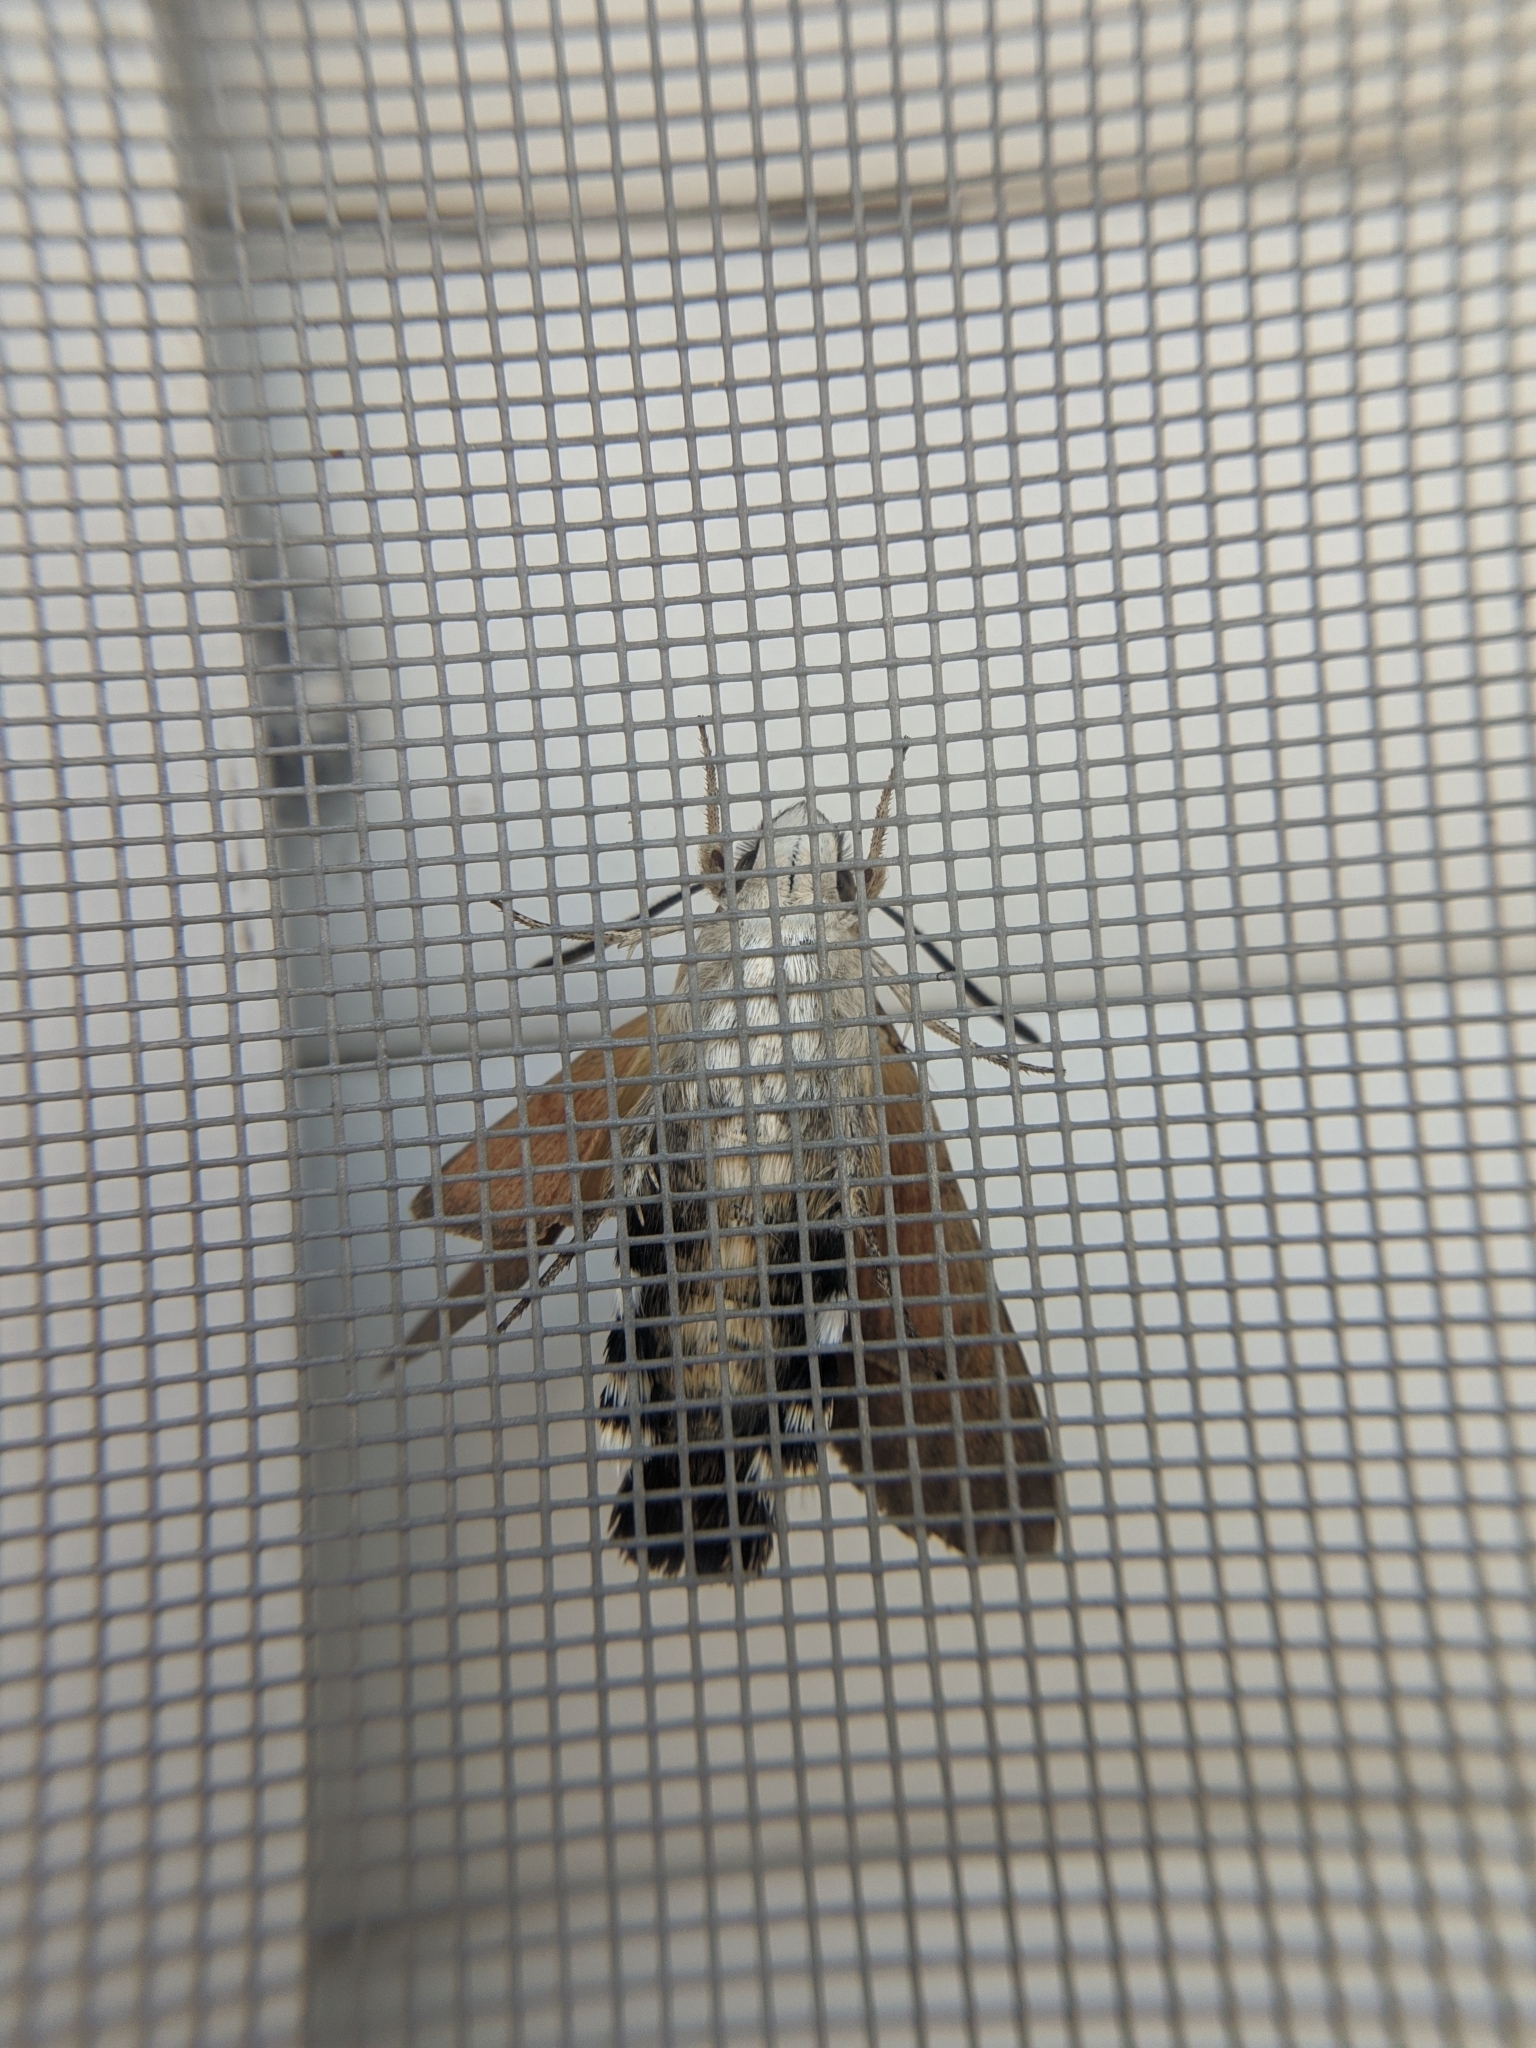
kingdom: Animalia
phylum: Arthropoda
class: Insecta
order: Lepidoptera
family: Sphingidae
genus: Macroglossum
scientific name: Macroglossum stellatarum
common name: Humming-bird hawk-moth
